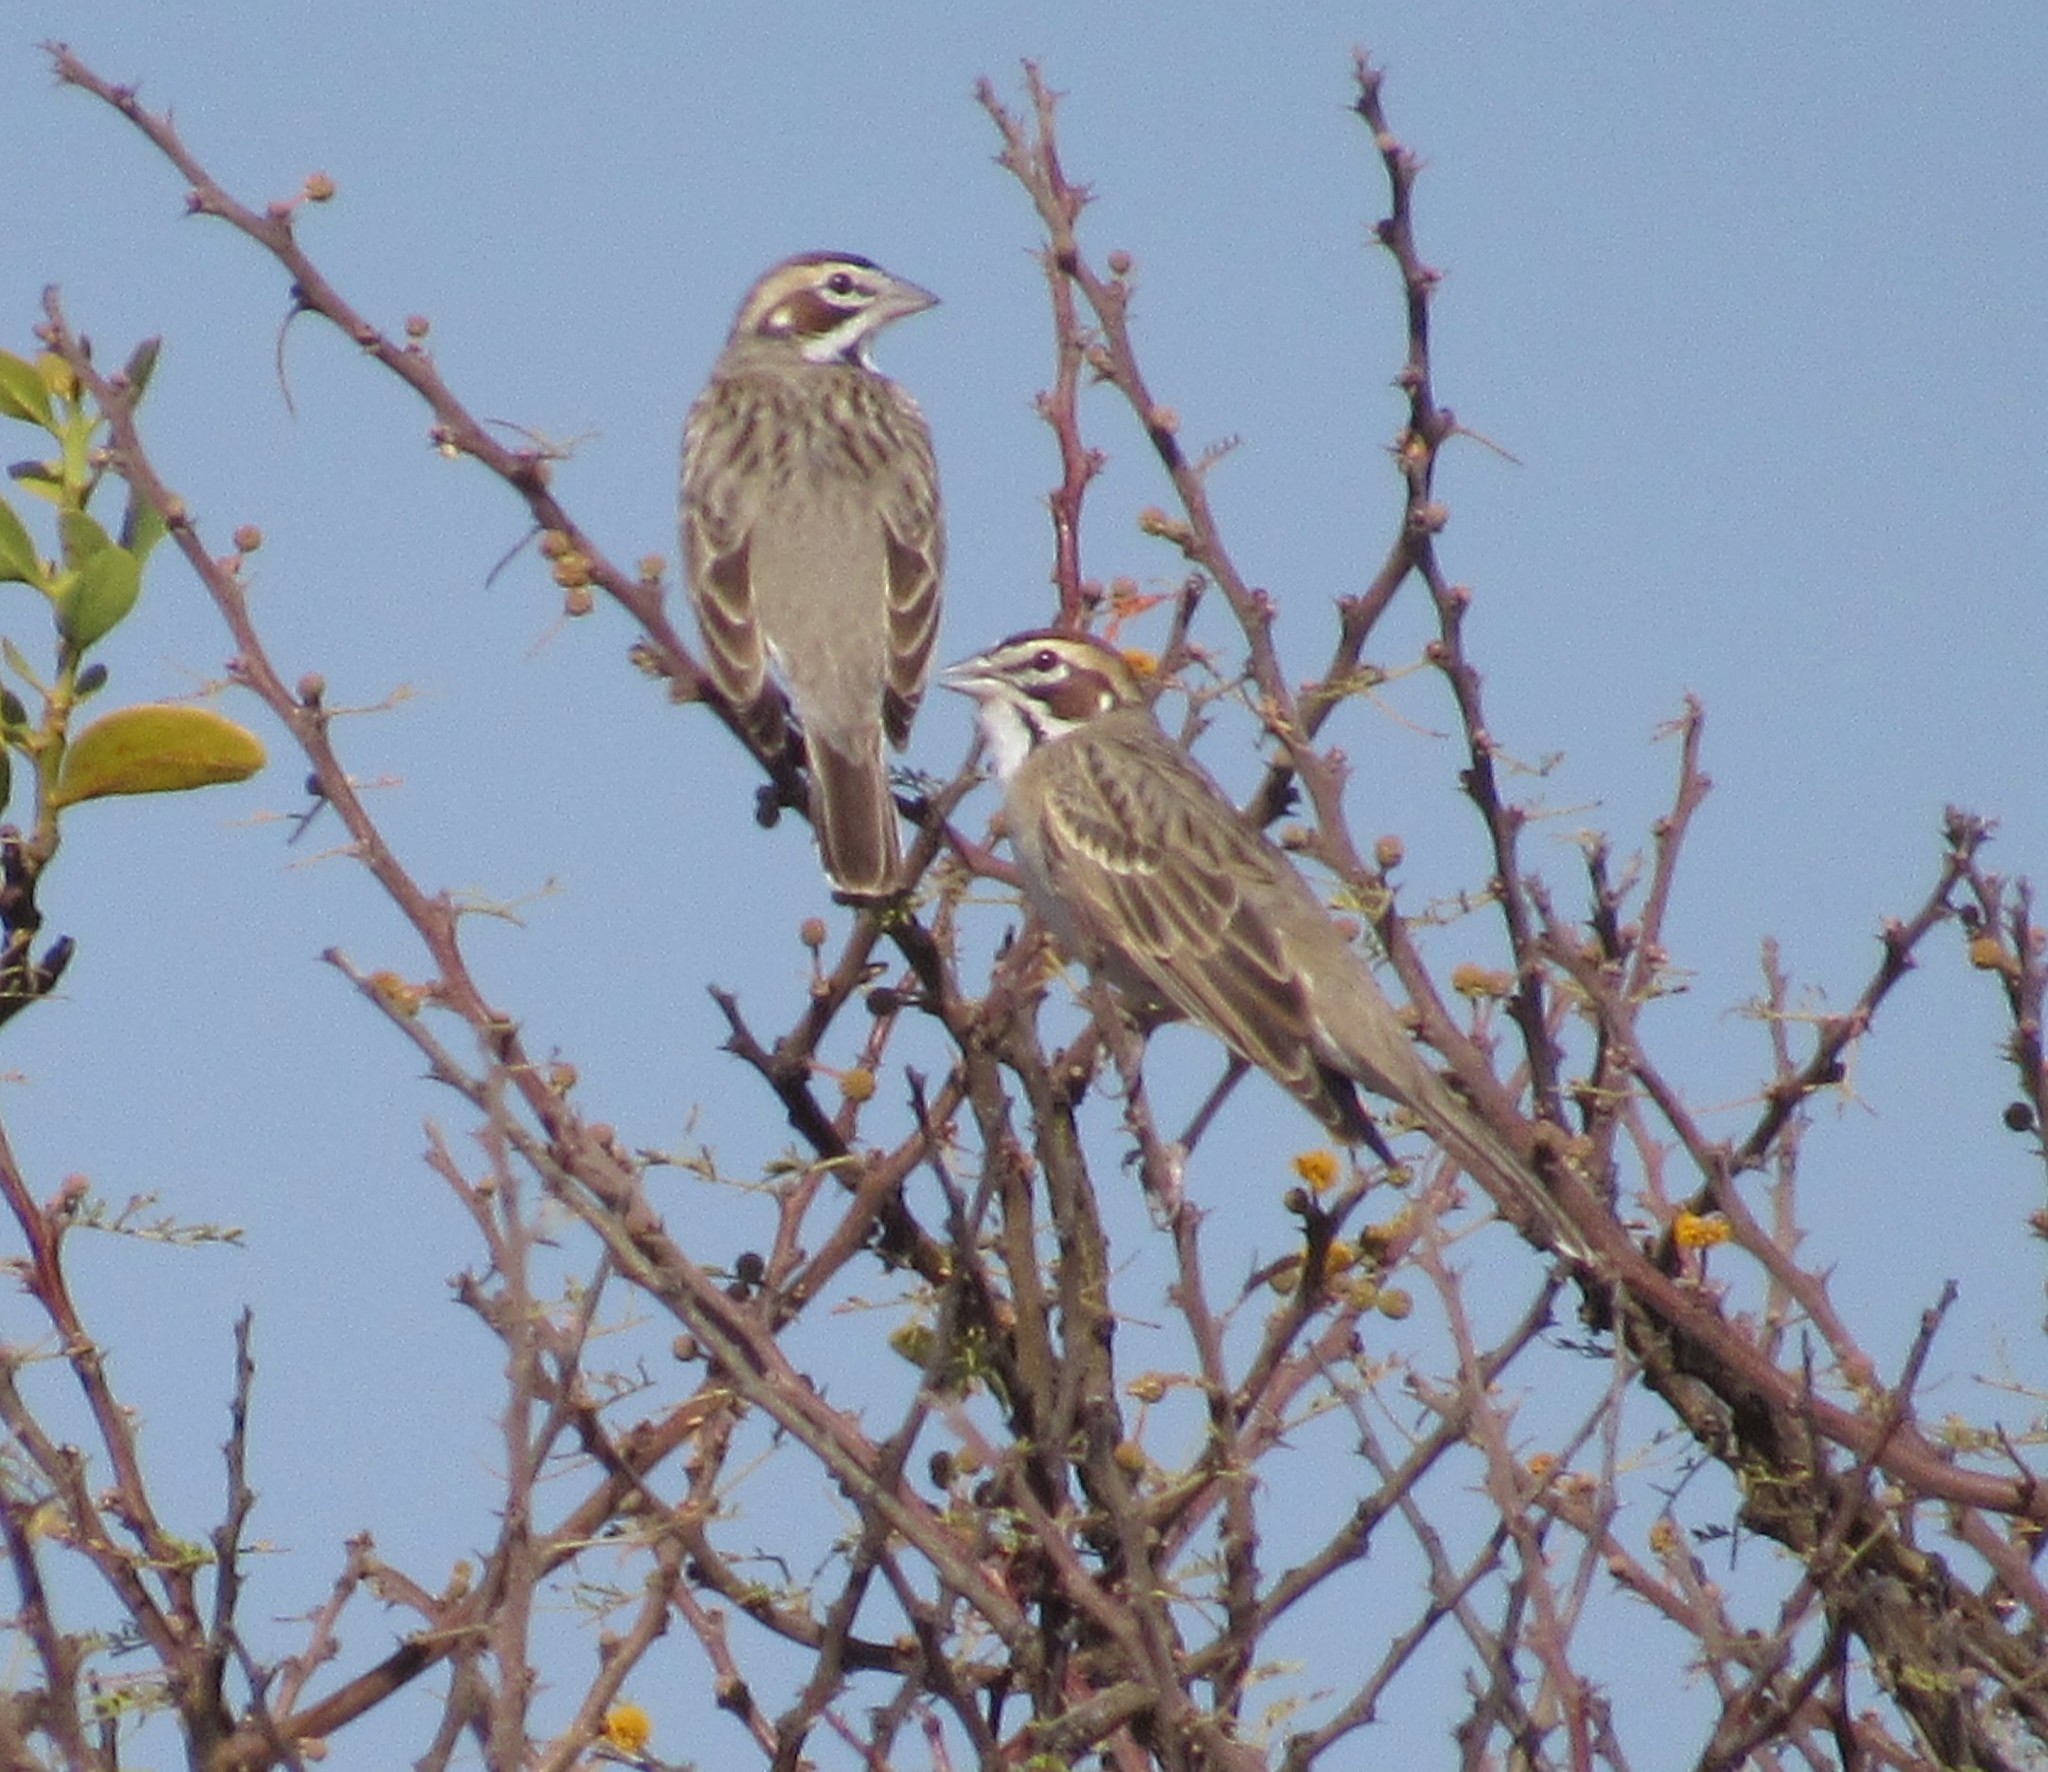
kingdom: Animalia
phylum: Chordata
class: Aves
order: Passeriformes
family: Passerellidae
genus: Chondestes
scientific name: Chondestes grammacus
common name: Lark sparrow
